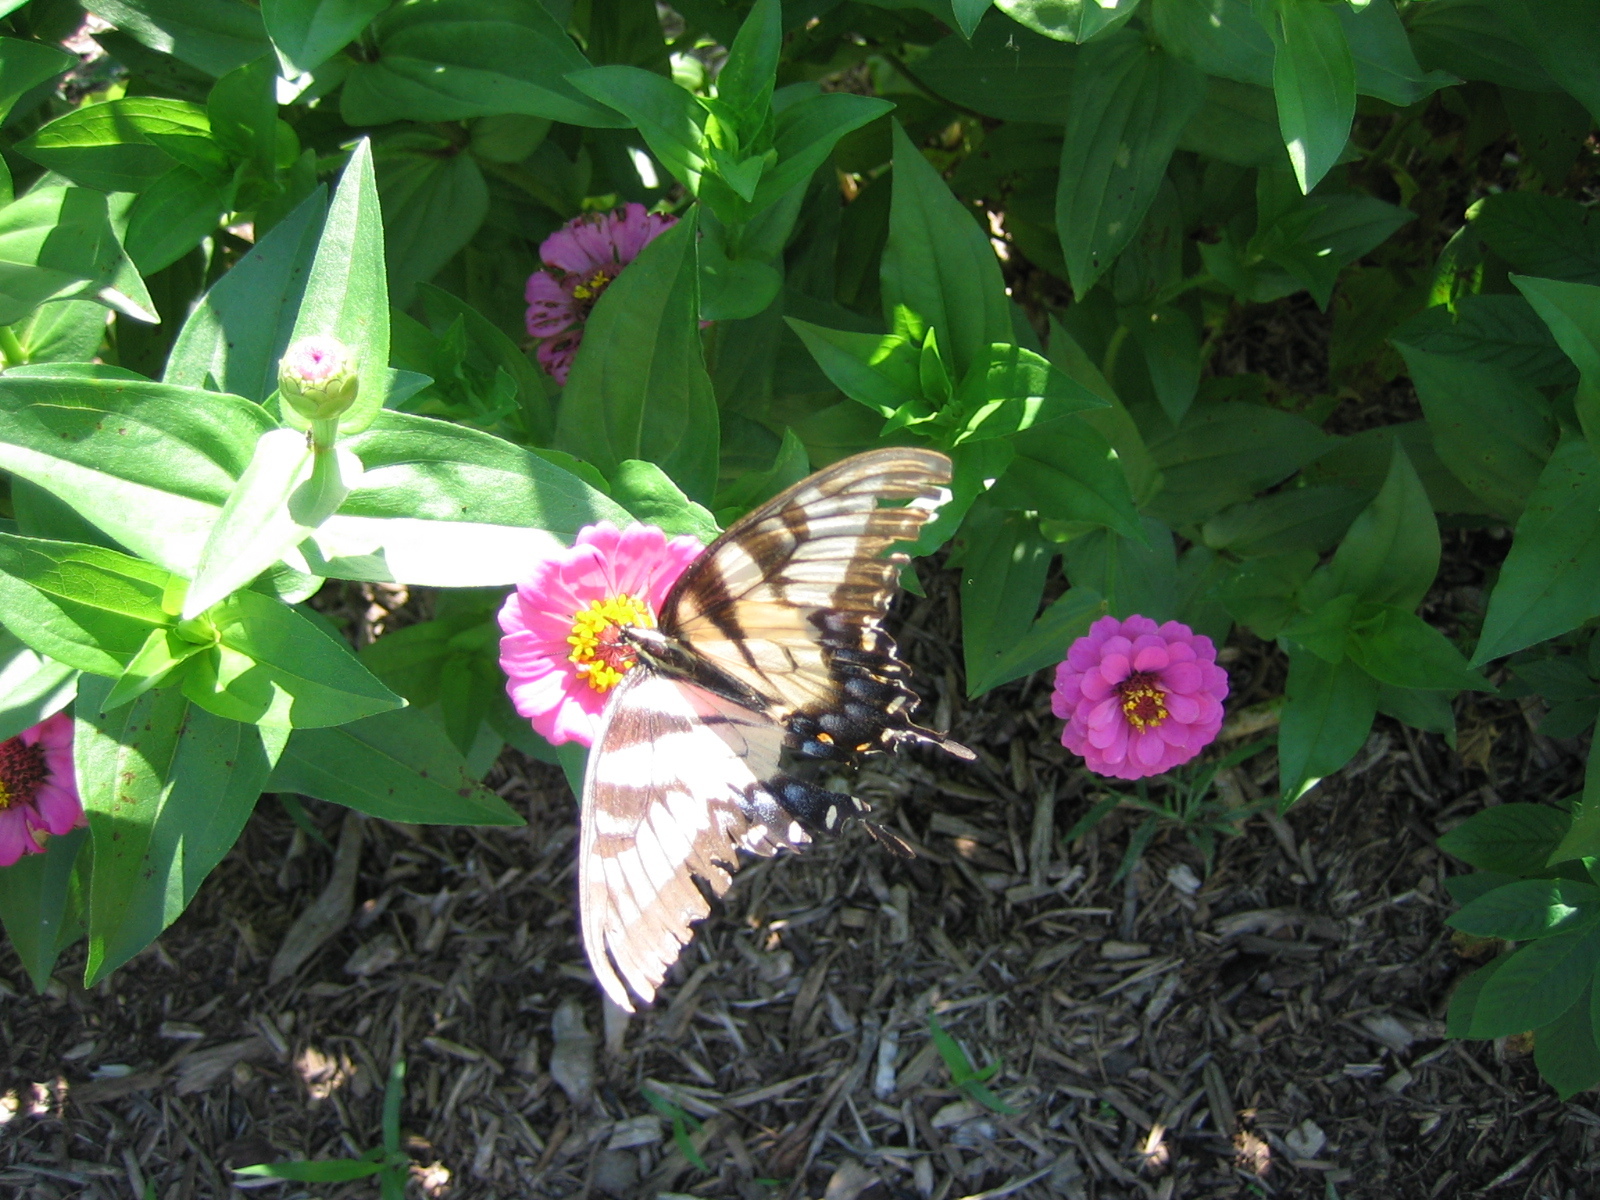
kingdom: Animalia
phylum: Arthropoda
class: Insecta
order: Lepidoptera
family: Papilionidae
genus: Papilio
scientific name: Papilio glaucus
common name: Tiger swallowtail
